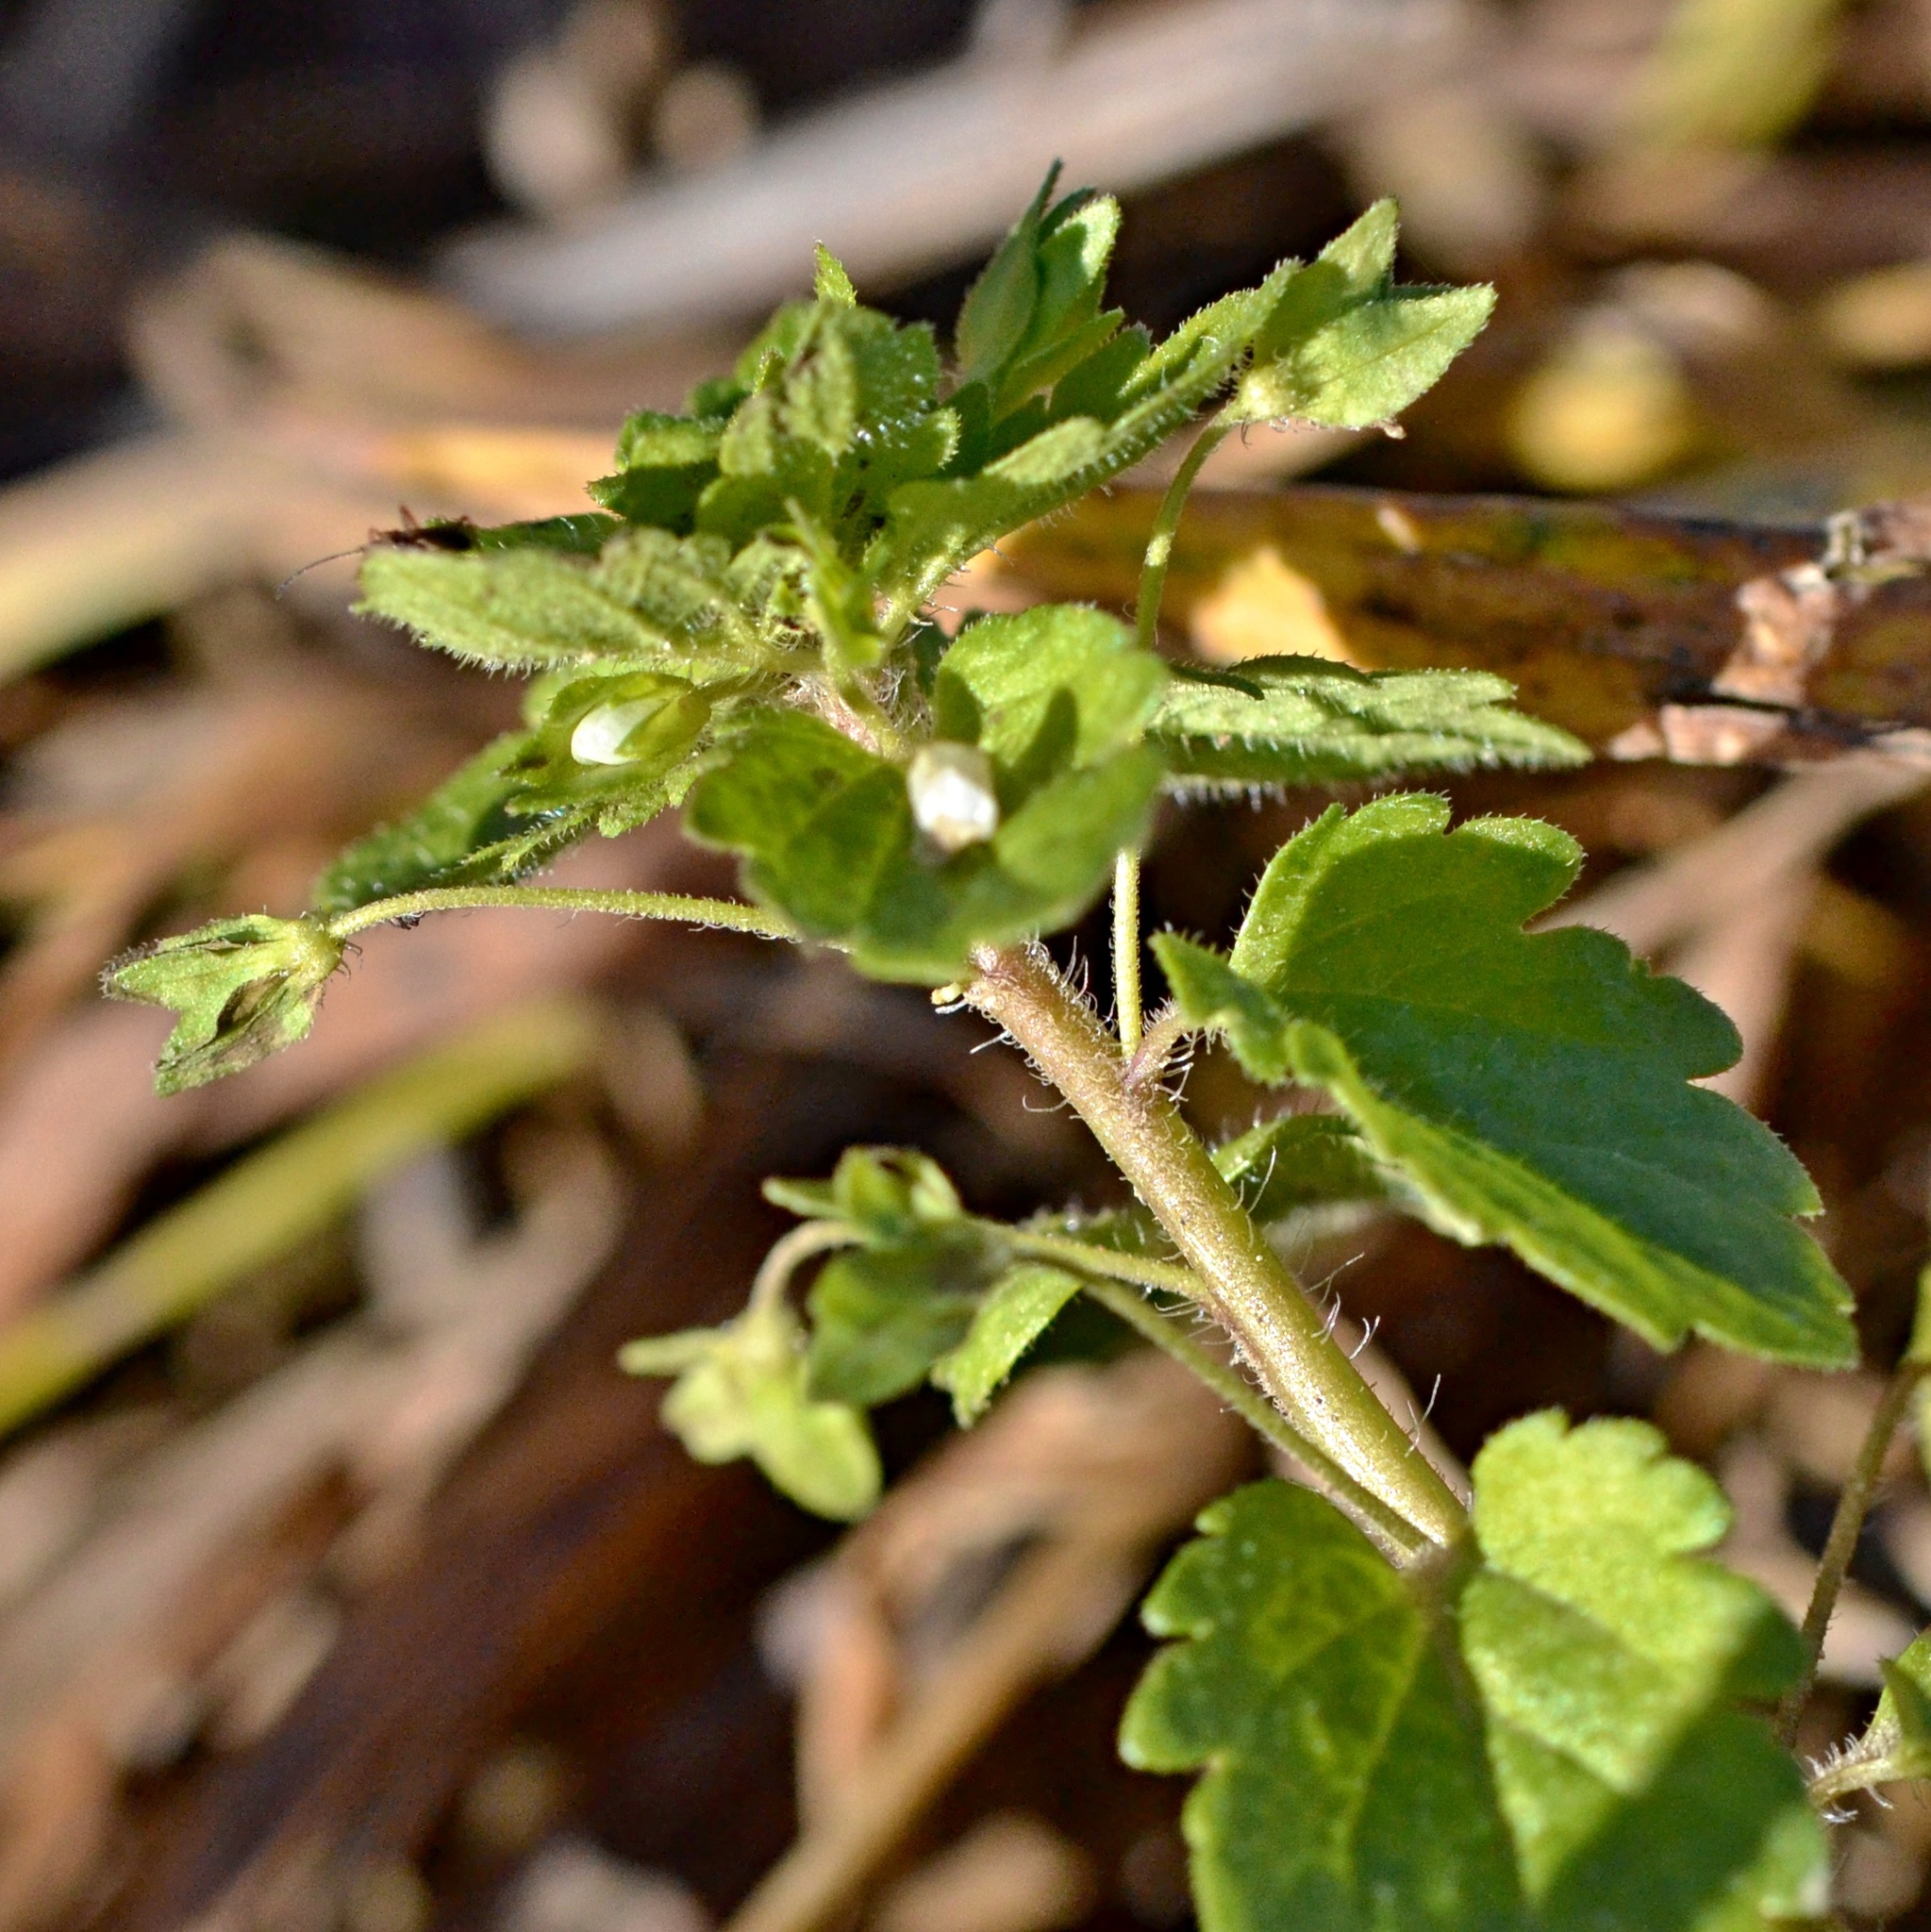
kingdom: Plantae
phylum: Tracheophyta
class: Magnoliopsida
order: Lamiales
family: Plantaginaceae
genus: Veronica
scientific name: Veronica persica
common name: Common field-speedwell
